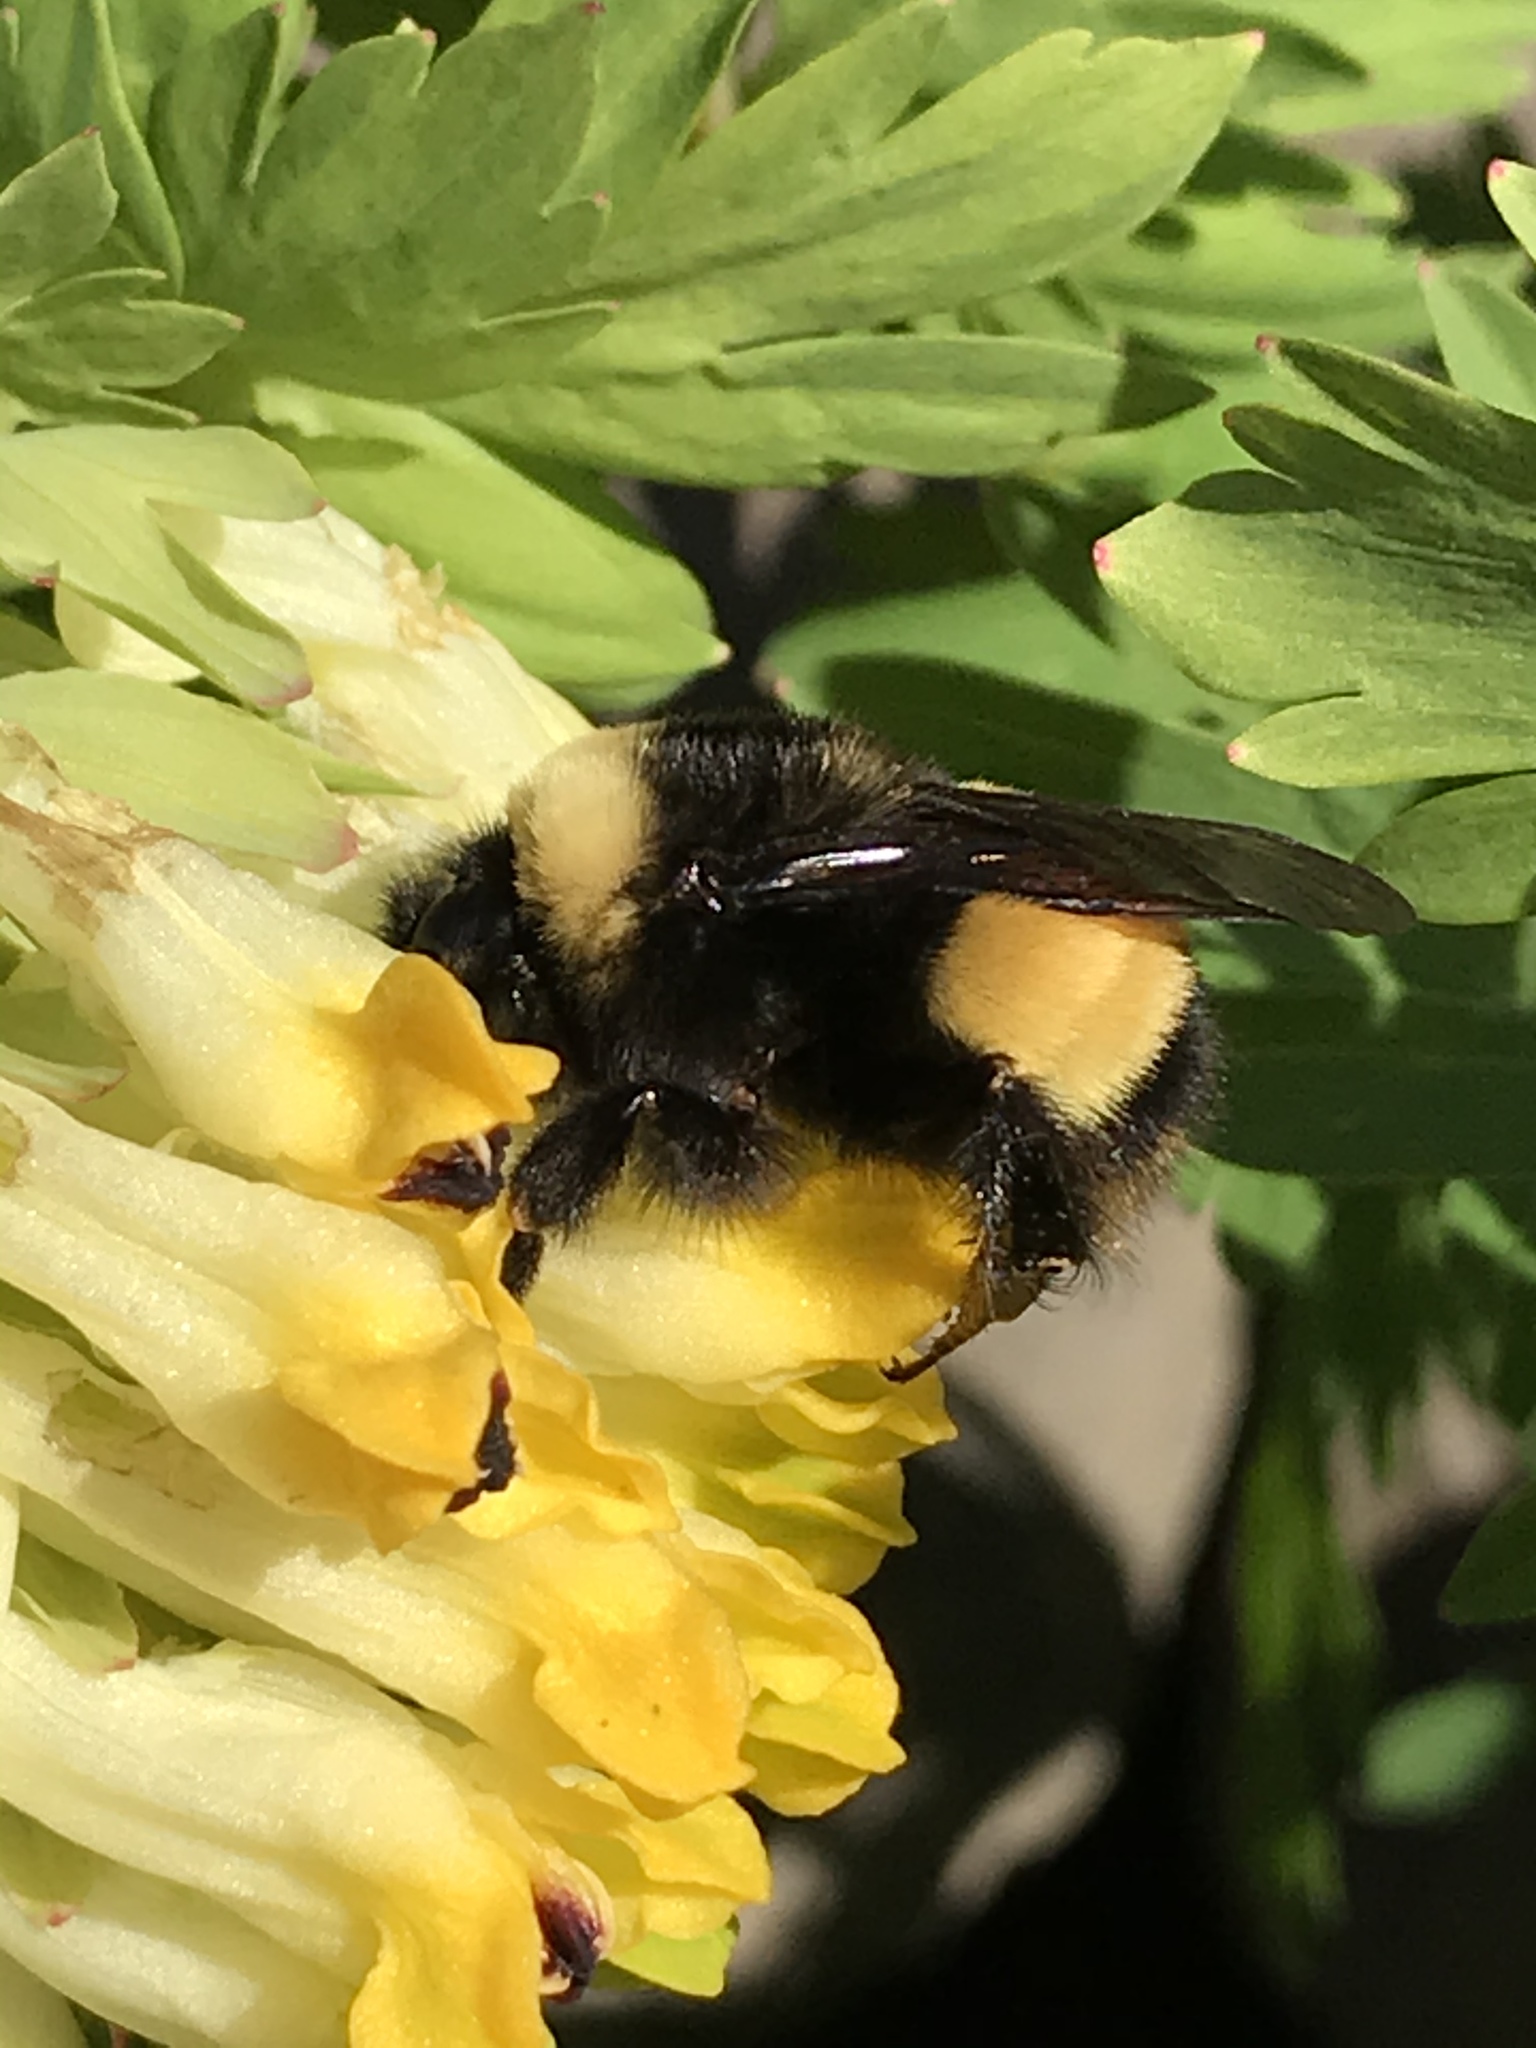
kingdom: Animalia
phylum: Arthropoda
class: Insecta
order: Hymenoptera
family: Apidae
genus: Bombus
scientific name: Bombus terricola
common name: Yellow-banded bumble bee
